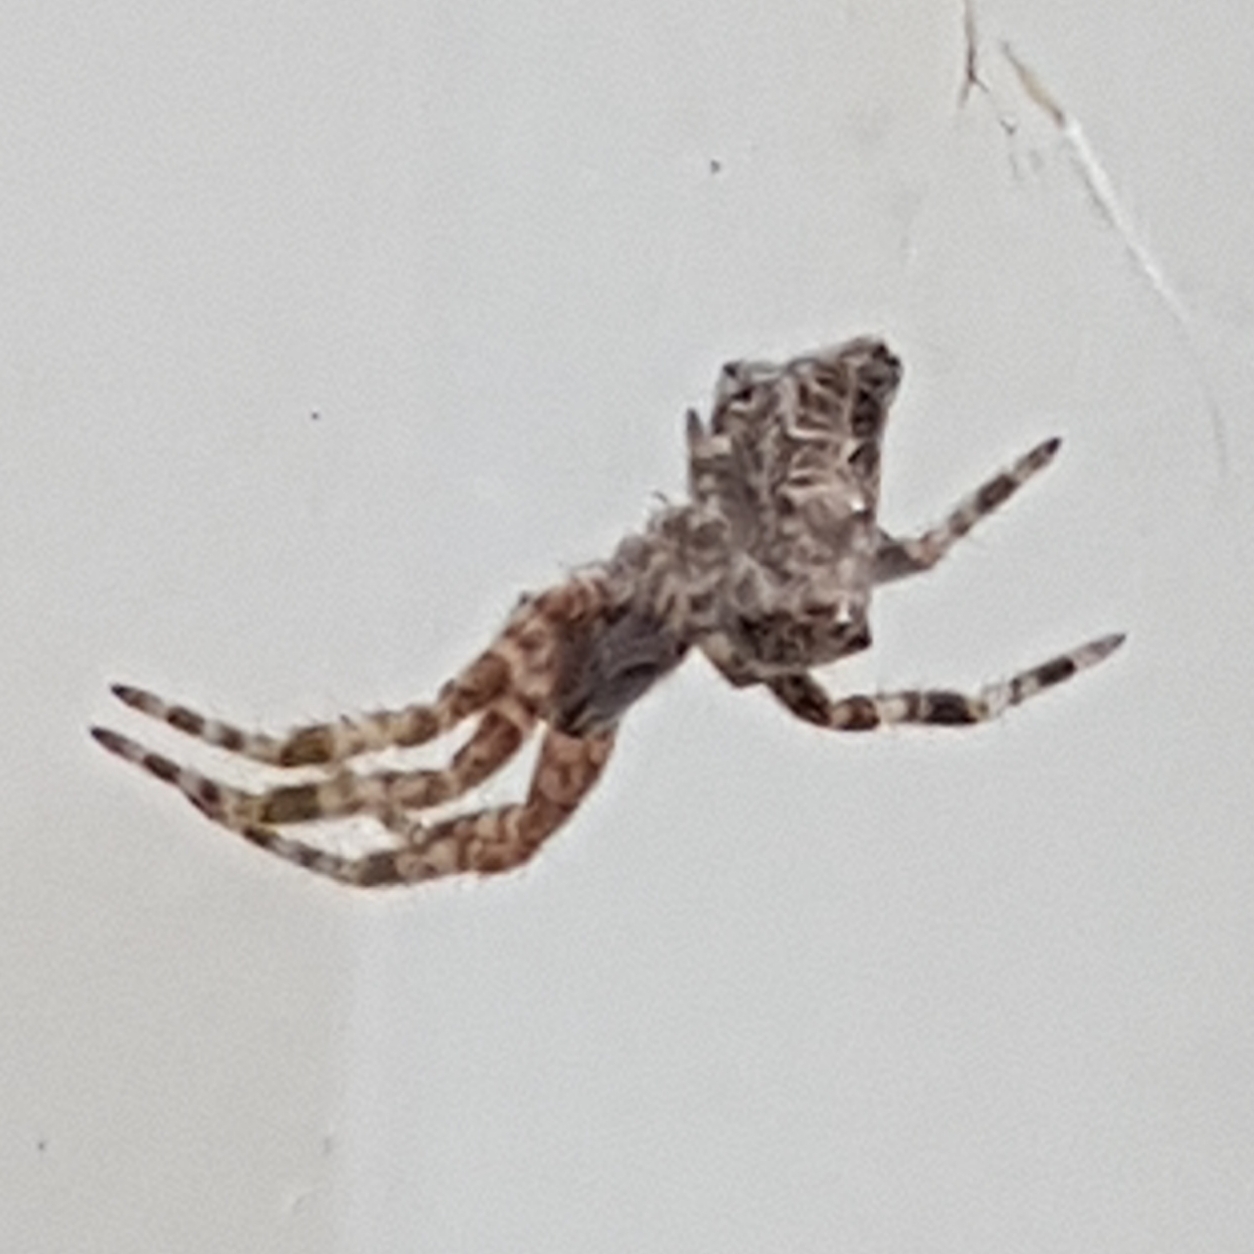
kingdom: Animalia
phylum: Arthropoda
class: Arachnida
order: Araneae
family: Araneidae
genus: Cyrtophora
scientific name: Cyrtophora citricola
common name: Orb weavers
